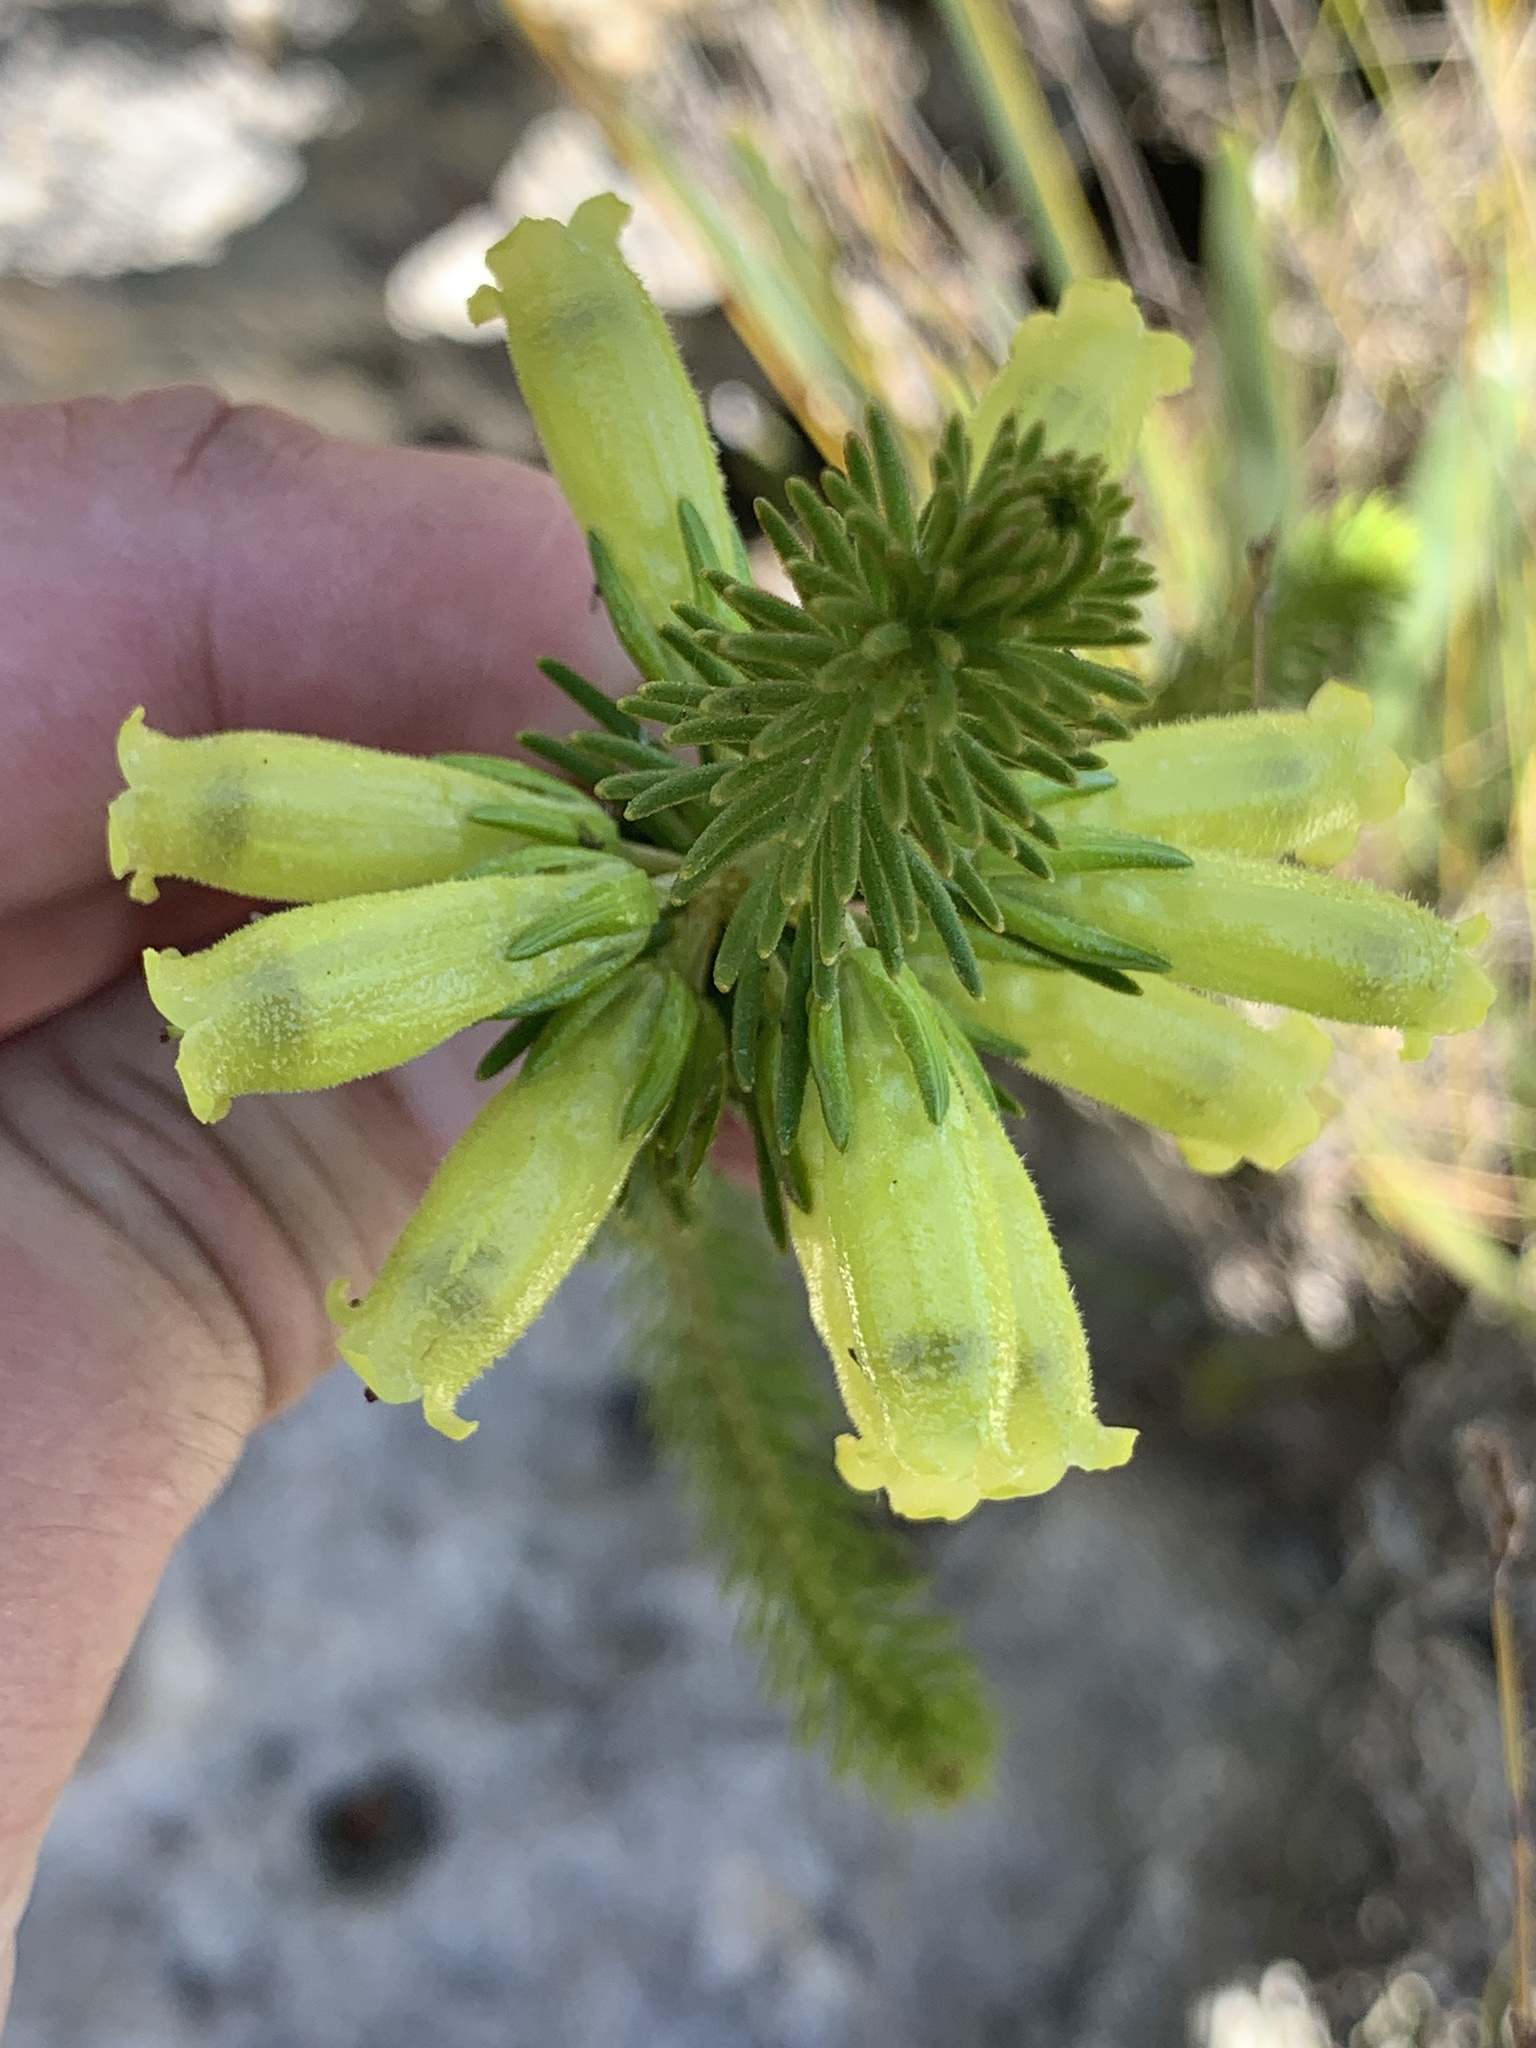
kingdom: Plantae
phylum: Tracheophyta
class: Magnoliopsida
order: Ericales
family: Ericaceae
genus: Erica
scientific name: Erica viscaria
